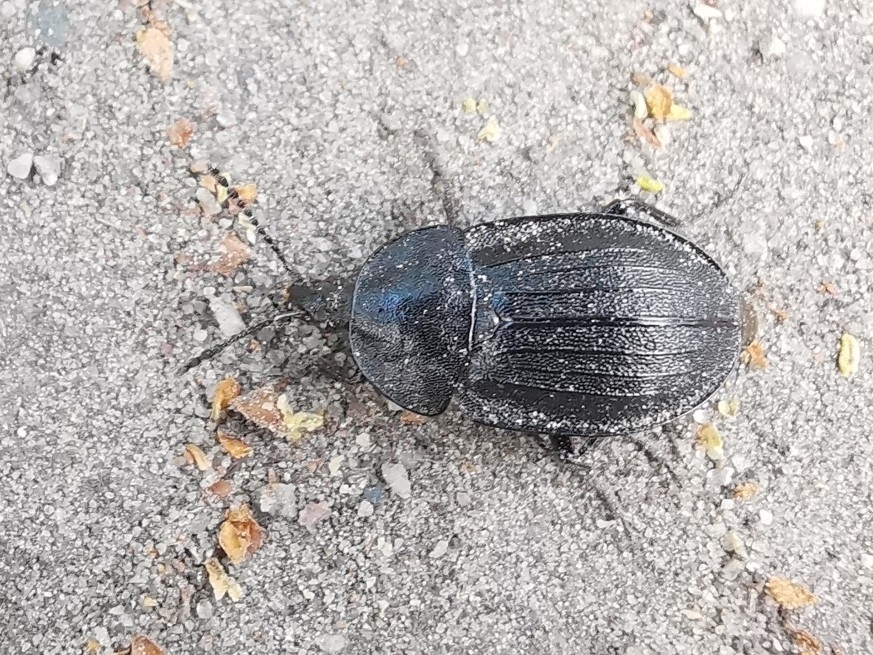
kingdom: Animalia
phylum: Arthropoda
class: Insecta
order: Coleoptera
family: Staphylinidae
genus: Silpha
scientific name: Silpha atrata
